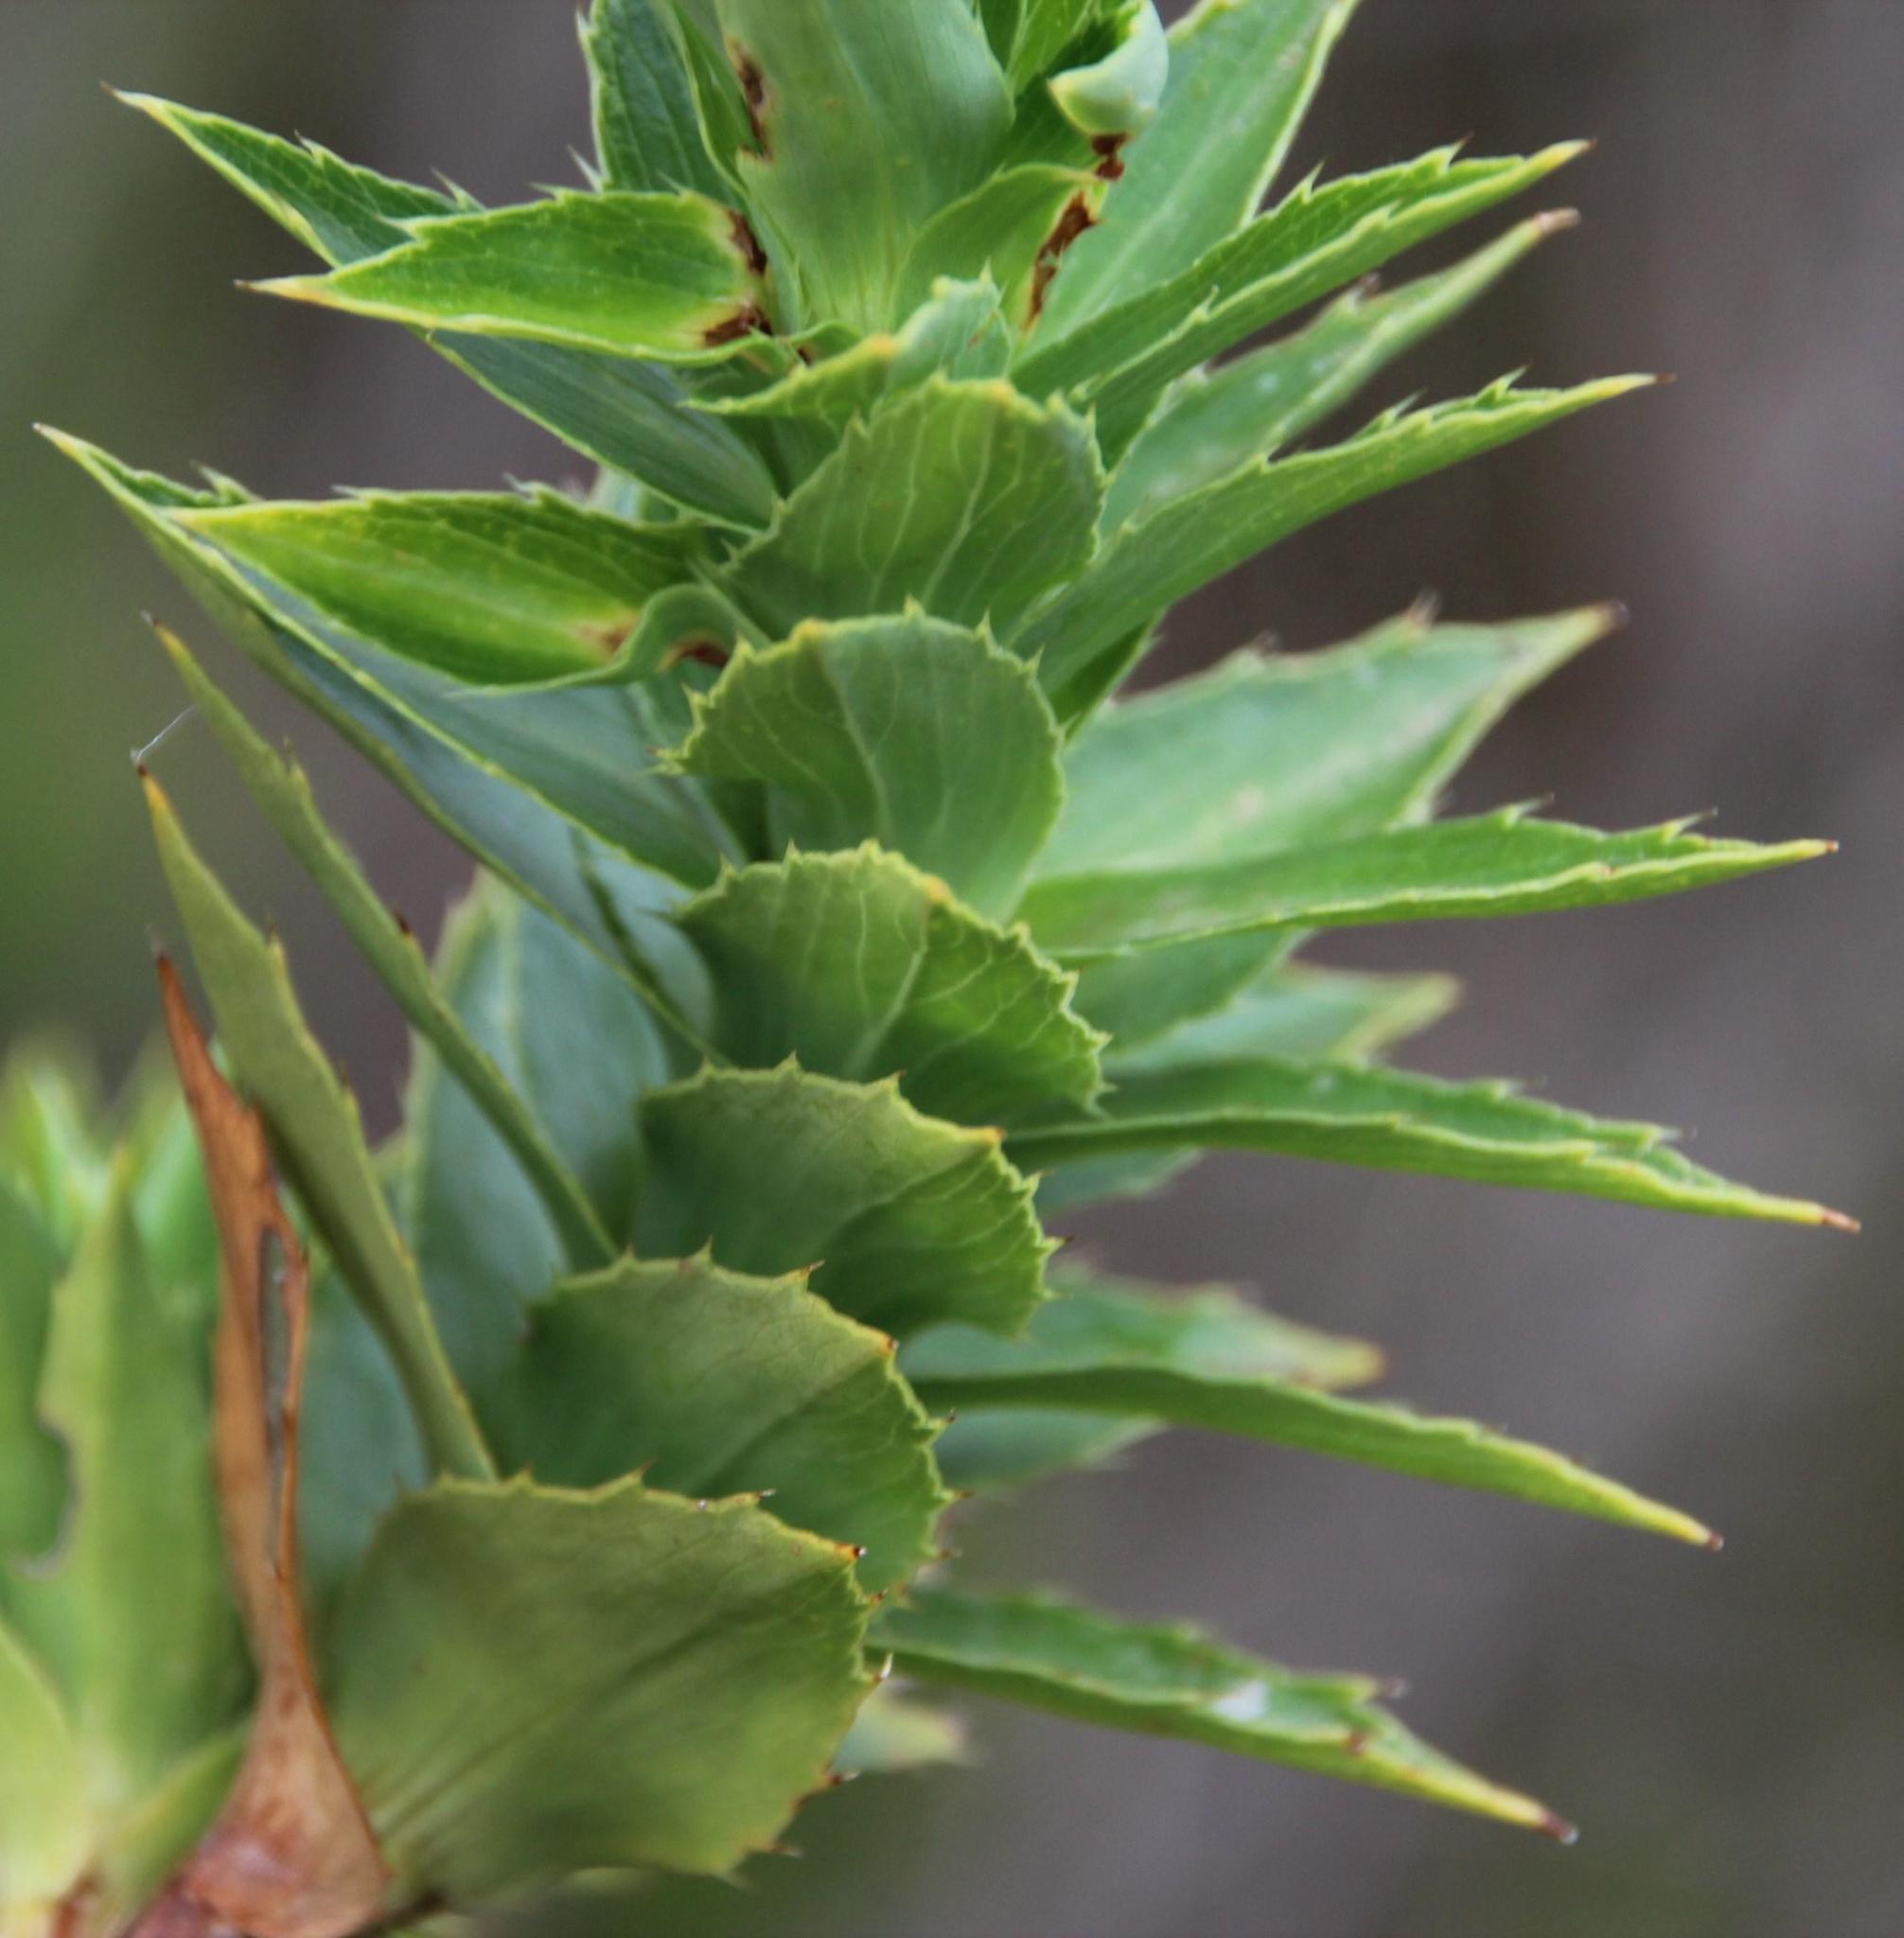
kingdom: Plantae
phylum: Tracheophyta
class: Magnoliopsida
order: Rosales
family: Rosaceae
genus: Cliffortia
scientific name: Cliffortia grandifolia
